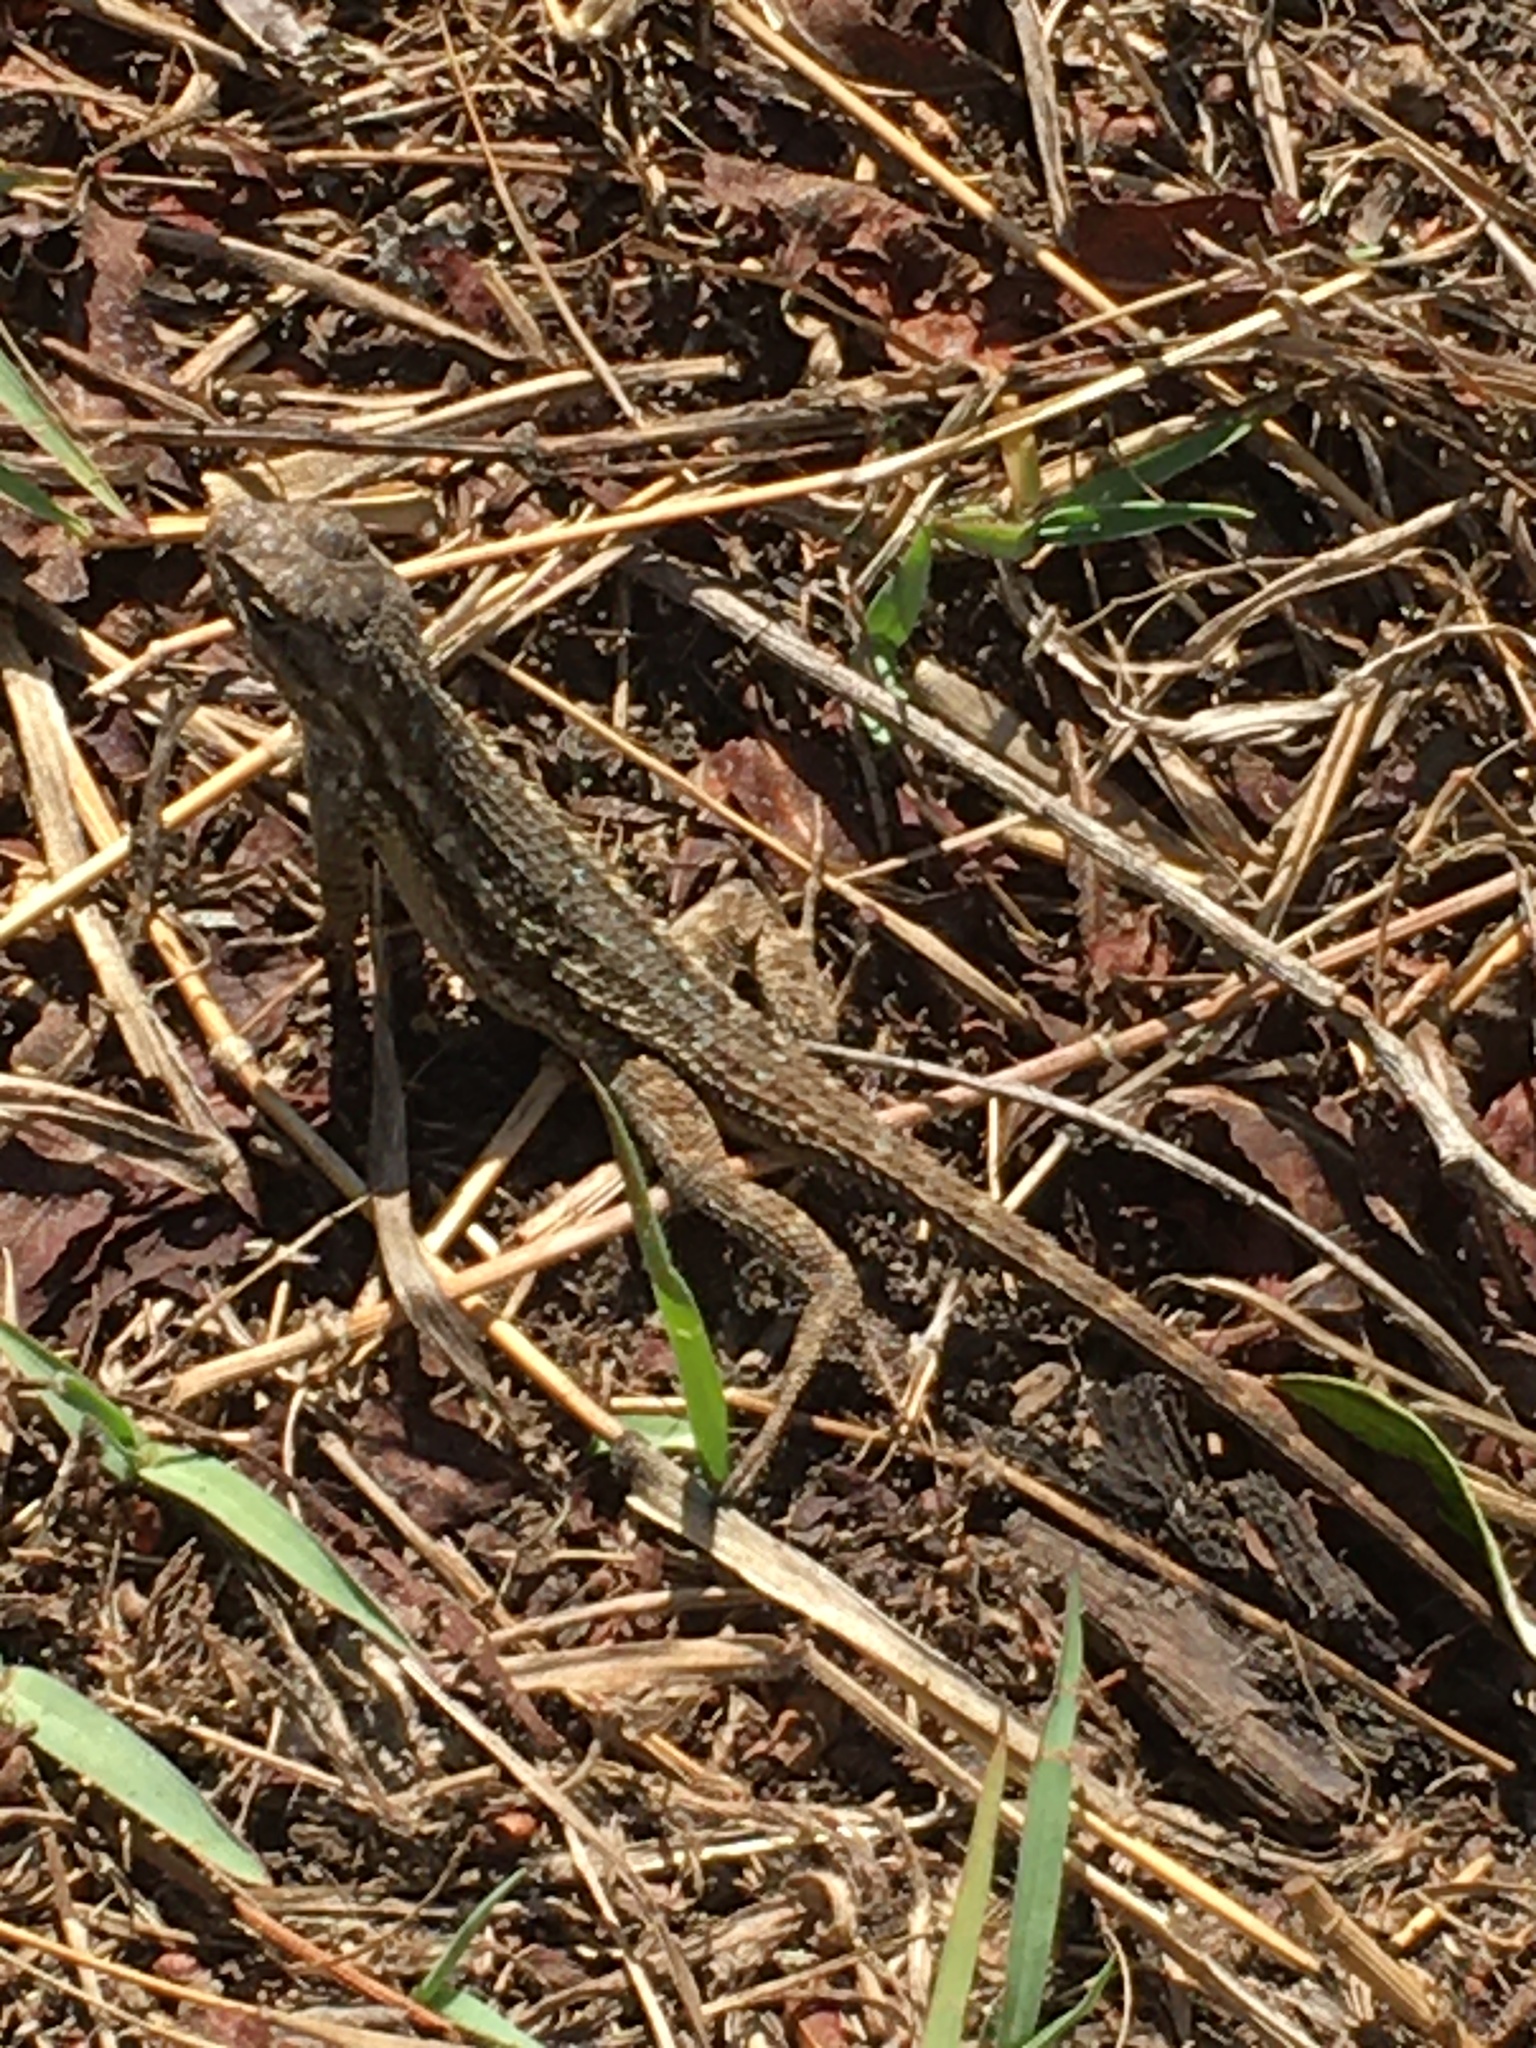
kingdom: Animalia
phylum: Chordata
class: Squamata
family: Phrynosomatidae
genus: Sceloporus
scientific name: Sceloporus occidentalis
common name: Western fence lizard
